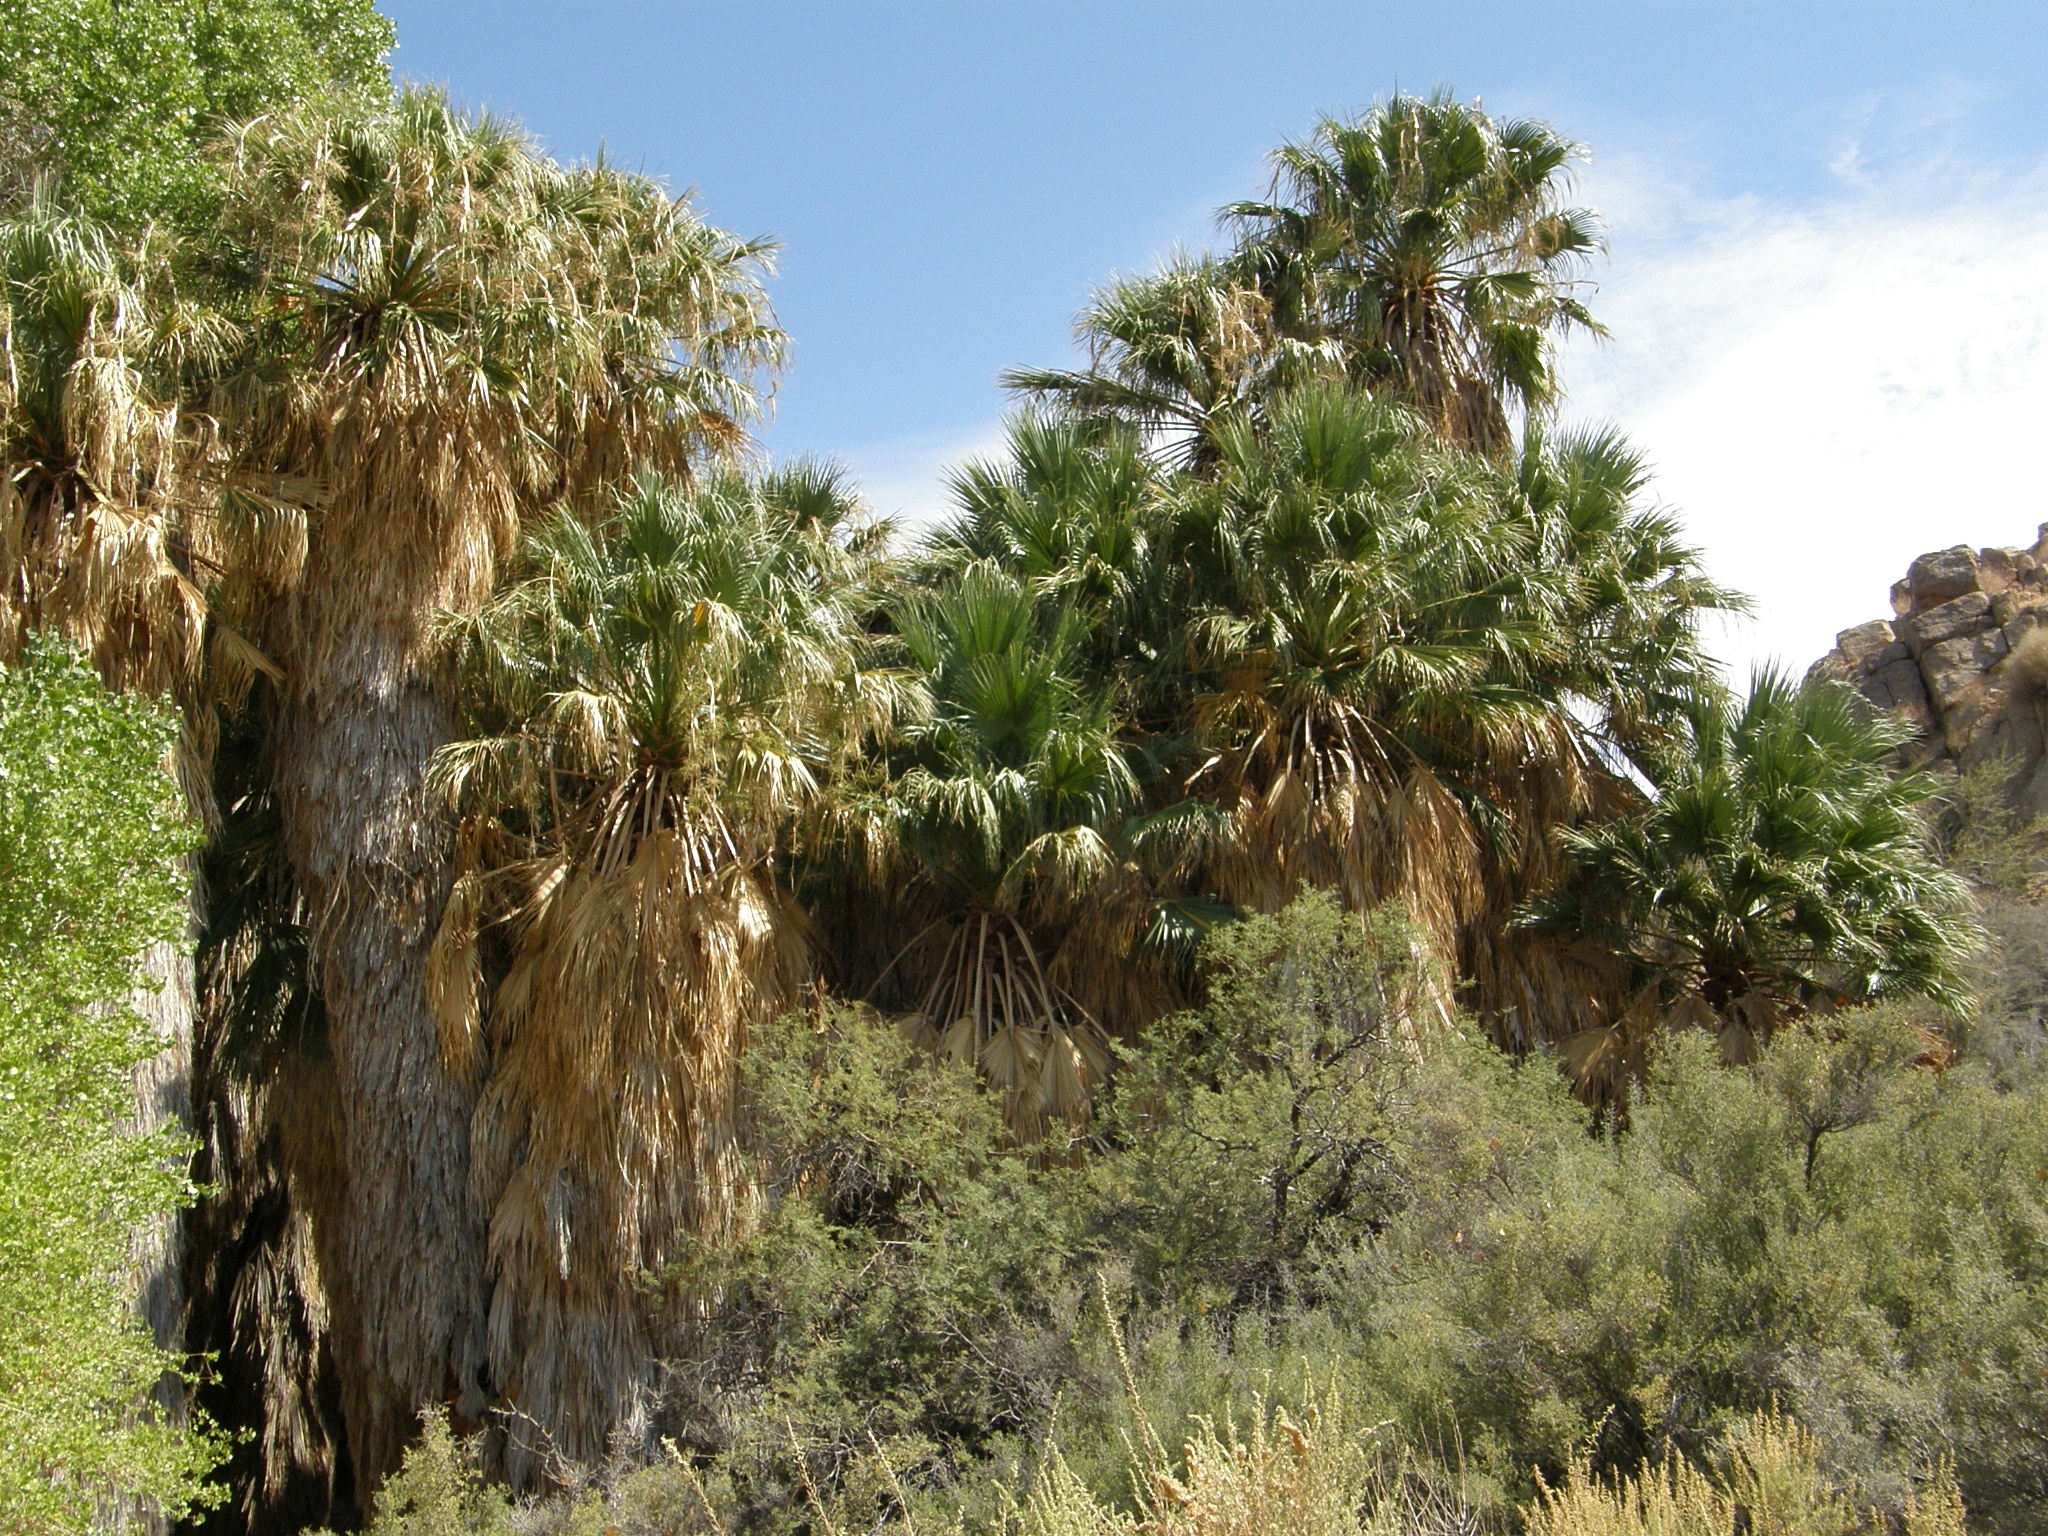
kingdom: Plantae
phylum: Tracheophyta
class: Liliopsida
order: Arecales
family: Arecaceae
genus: Washingtonia
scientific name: Washingtonia filifera
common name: California fan palm
